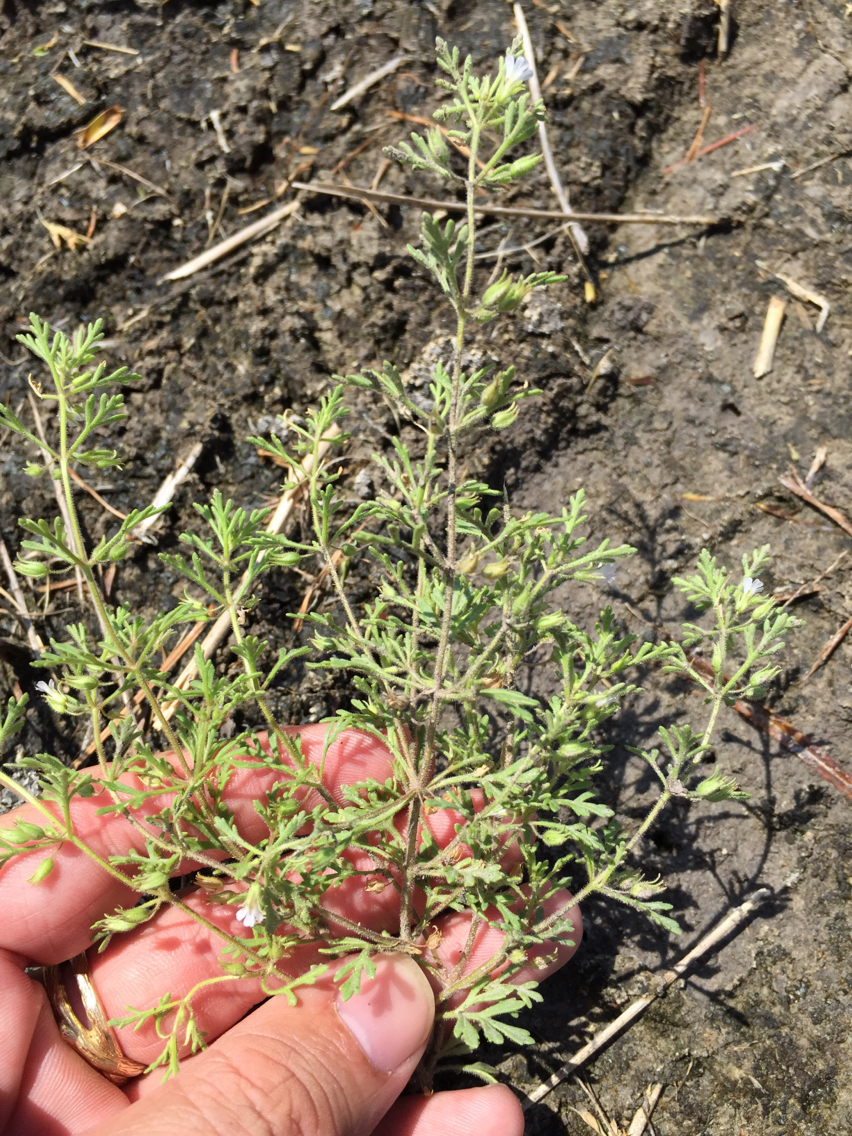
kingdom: Plantae
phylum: Tracheophyta
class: Magnoliopsida
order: Lamiales
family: Plantaginaceae
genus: Leucospora
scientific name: Leucospora multifida
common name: Narrow-leaf paleseed
